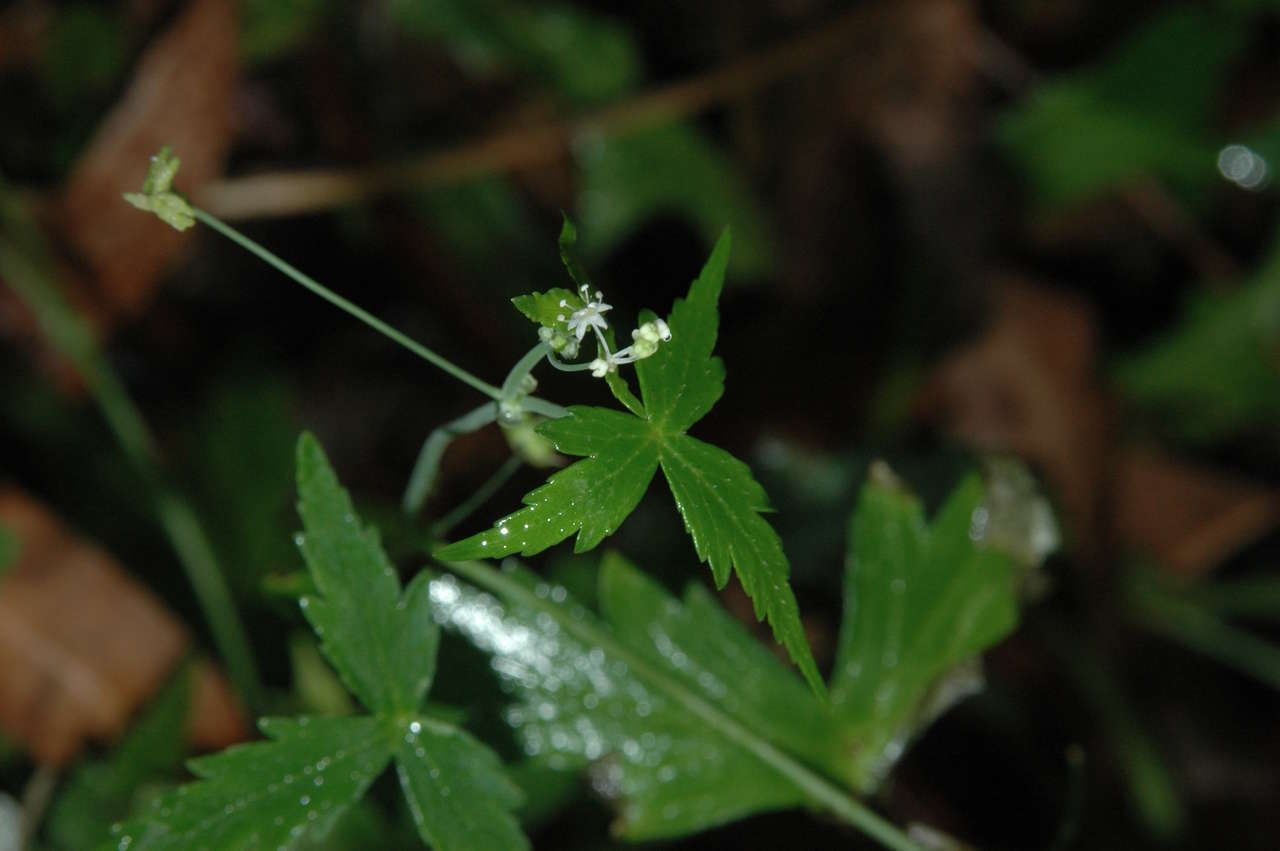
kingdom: Plantae
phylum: Tracheophyta
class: Magnoliopsida
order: Apiales
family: Araliaceae
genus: Hydrocotyle
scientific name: Hydrocotyle geraniifolia
